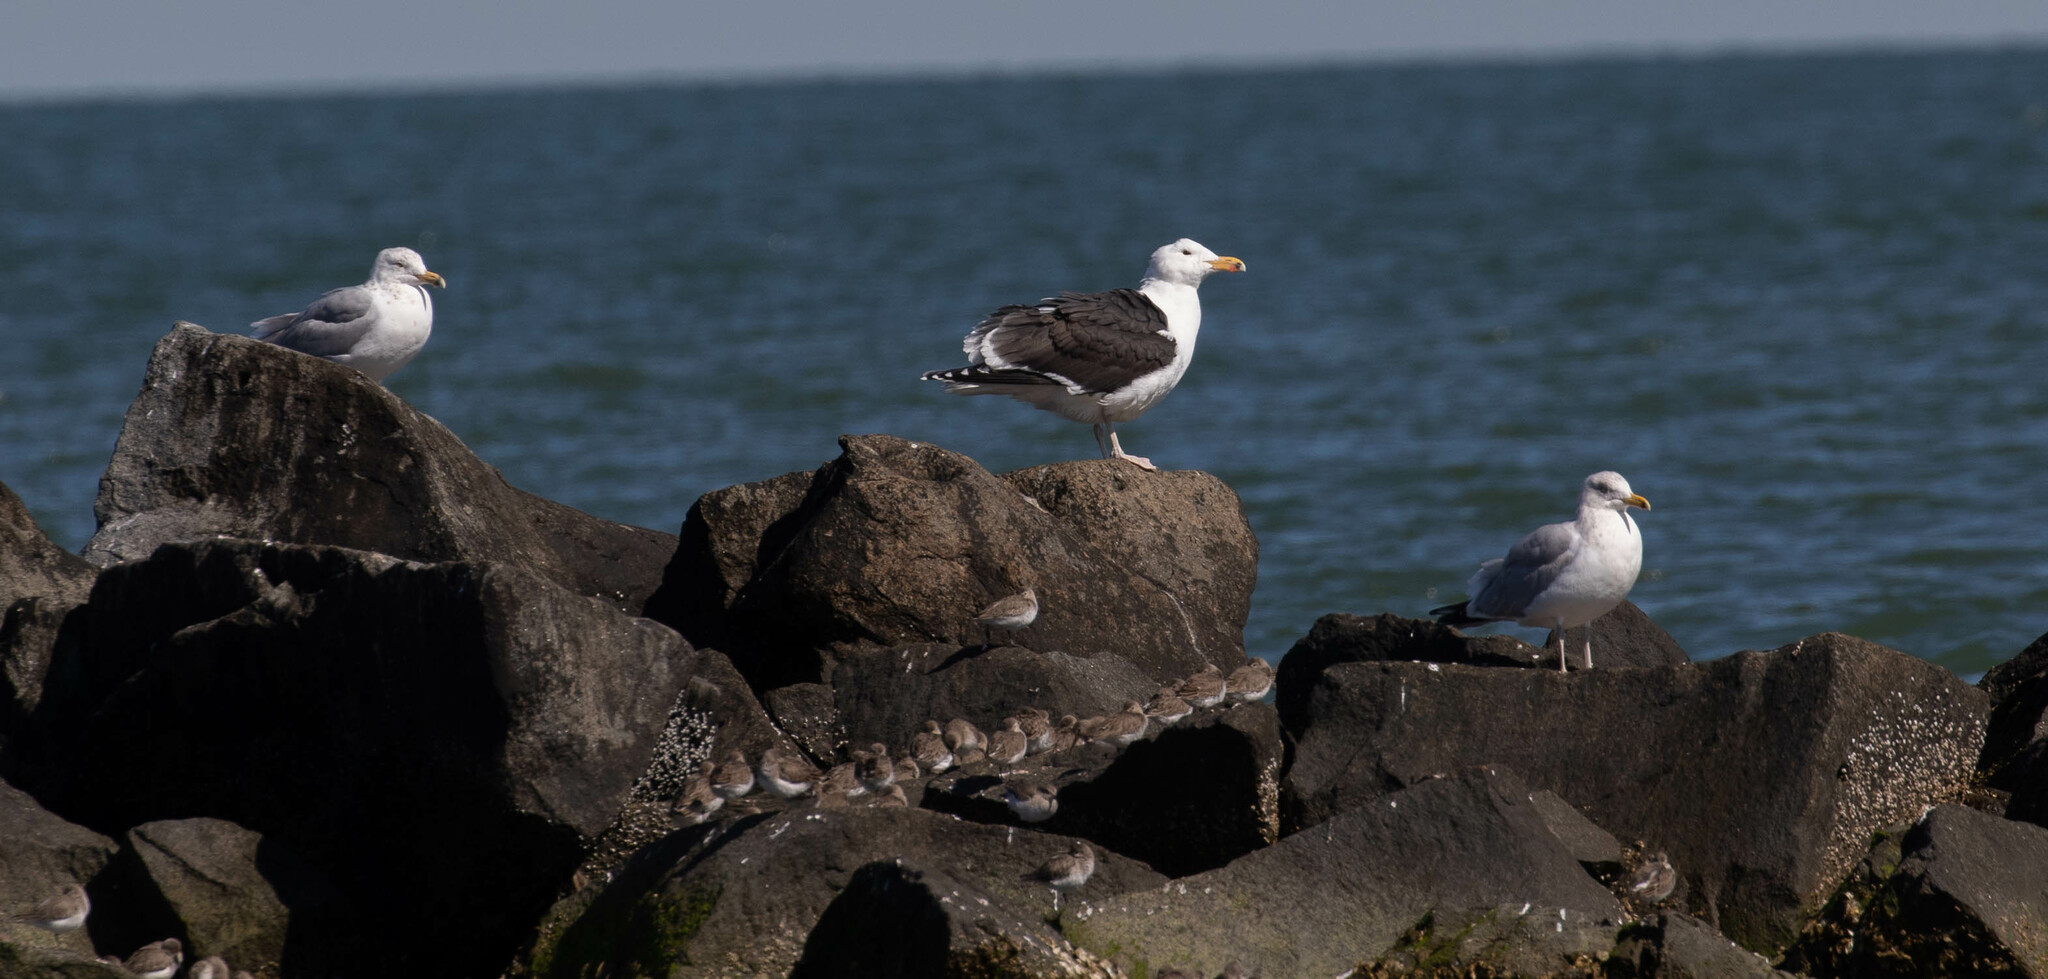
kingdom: Animalia
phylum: Chordata
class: Aves
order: Charadriiformes
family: Laridae
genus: Larus
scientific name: Larus marinus
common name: Great black-backed gull
